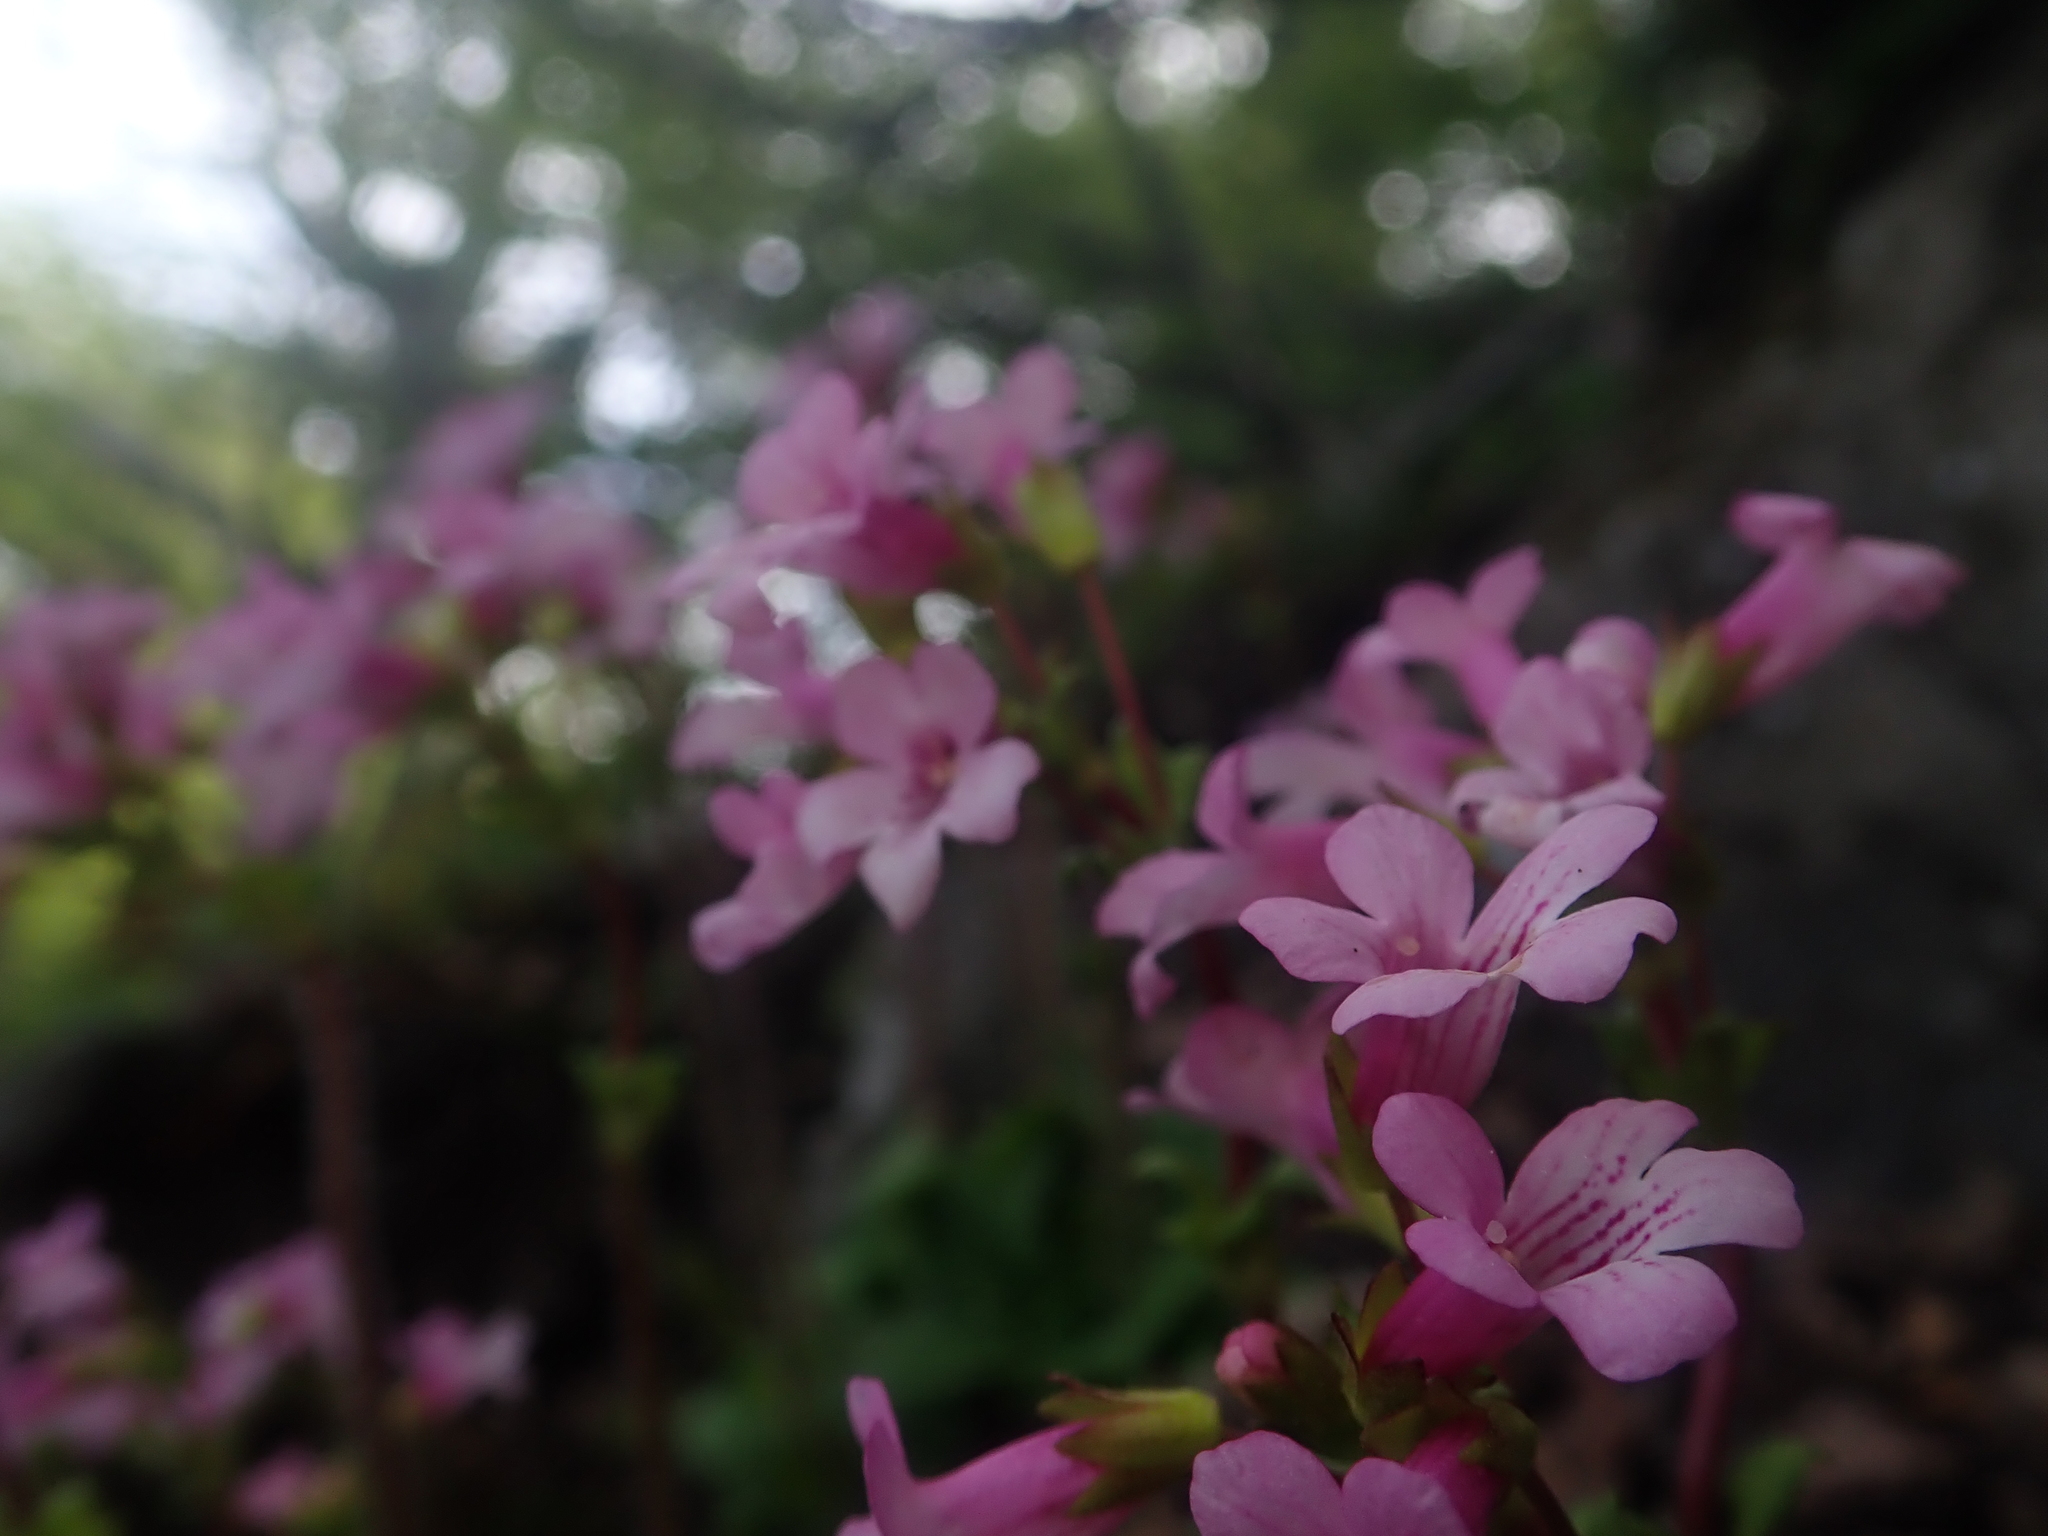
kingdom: Plantae
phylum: Tracheophyta
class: Magnoliopsida
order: Lamiales
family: Plantaginaceae
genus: Ourisia
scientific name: Ourisia alpina
